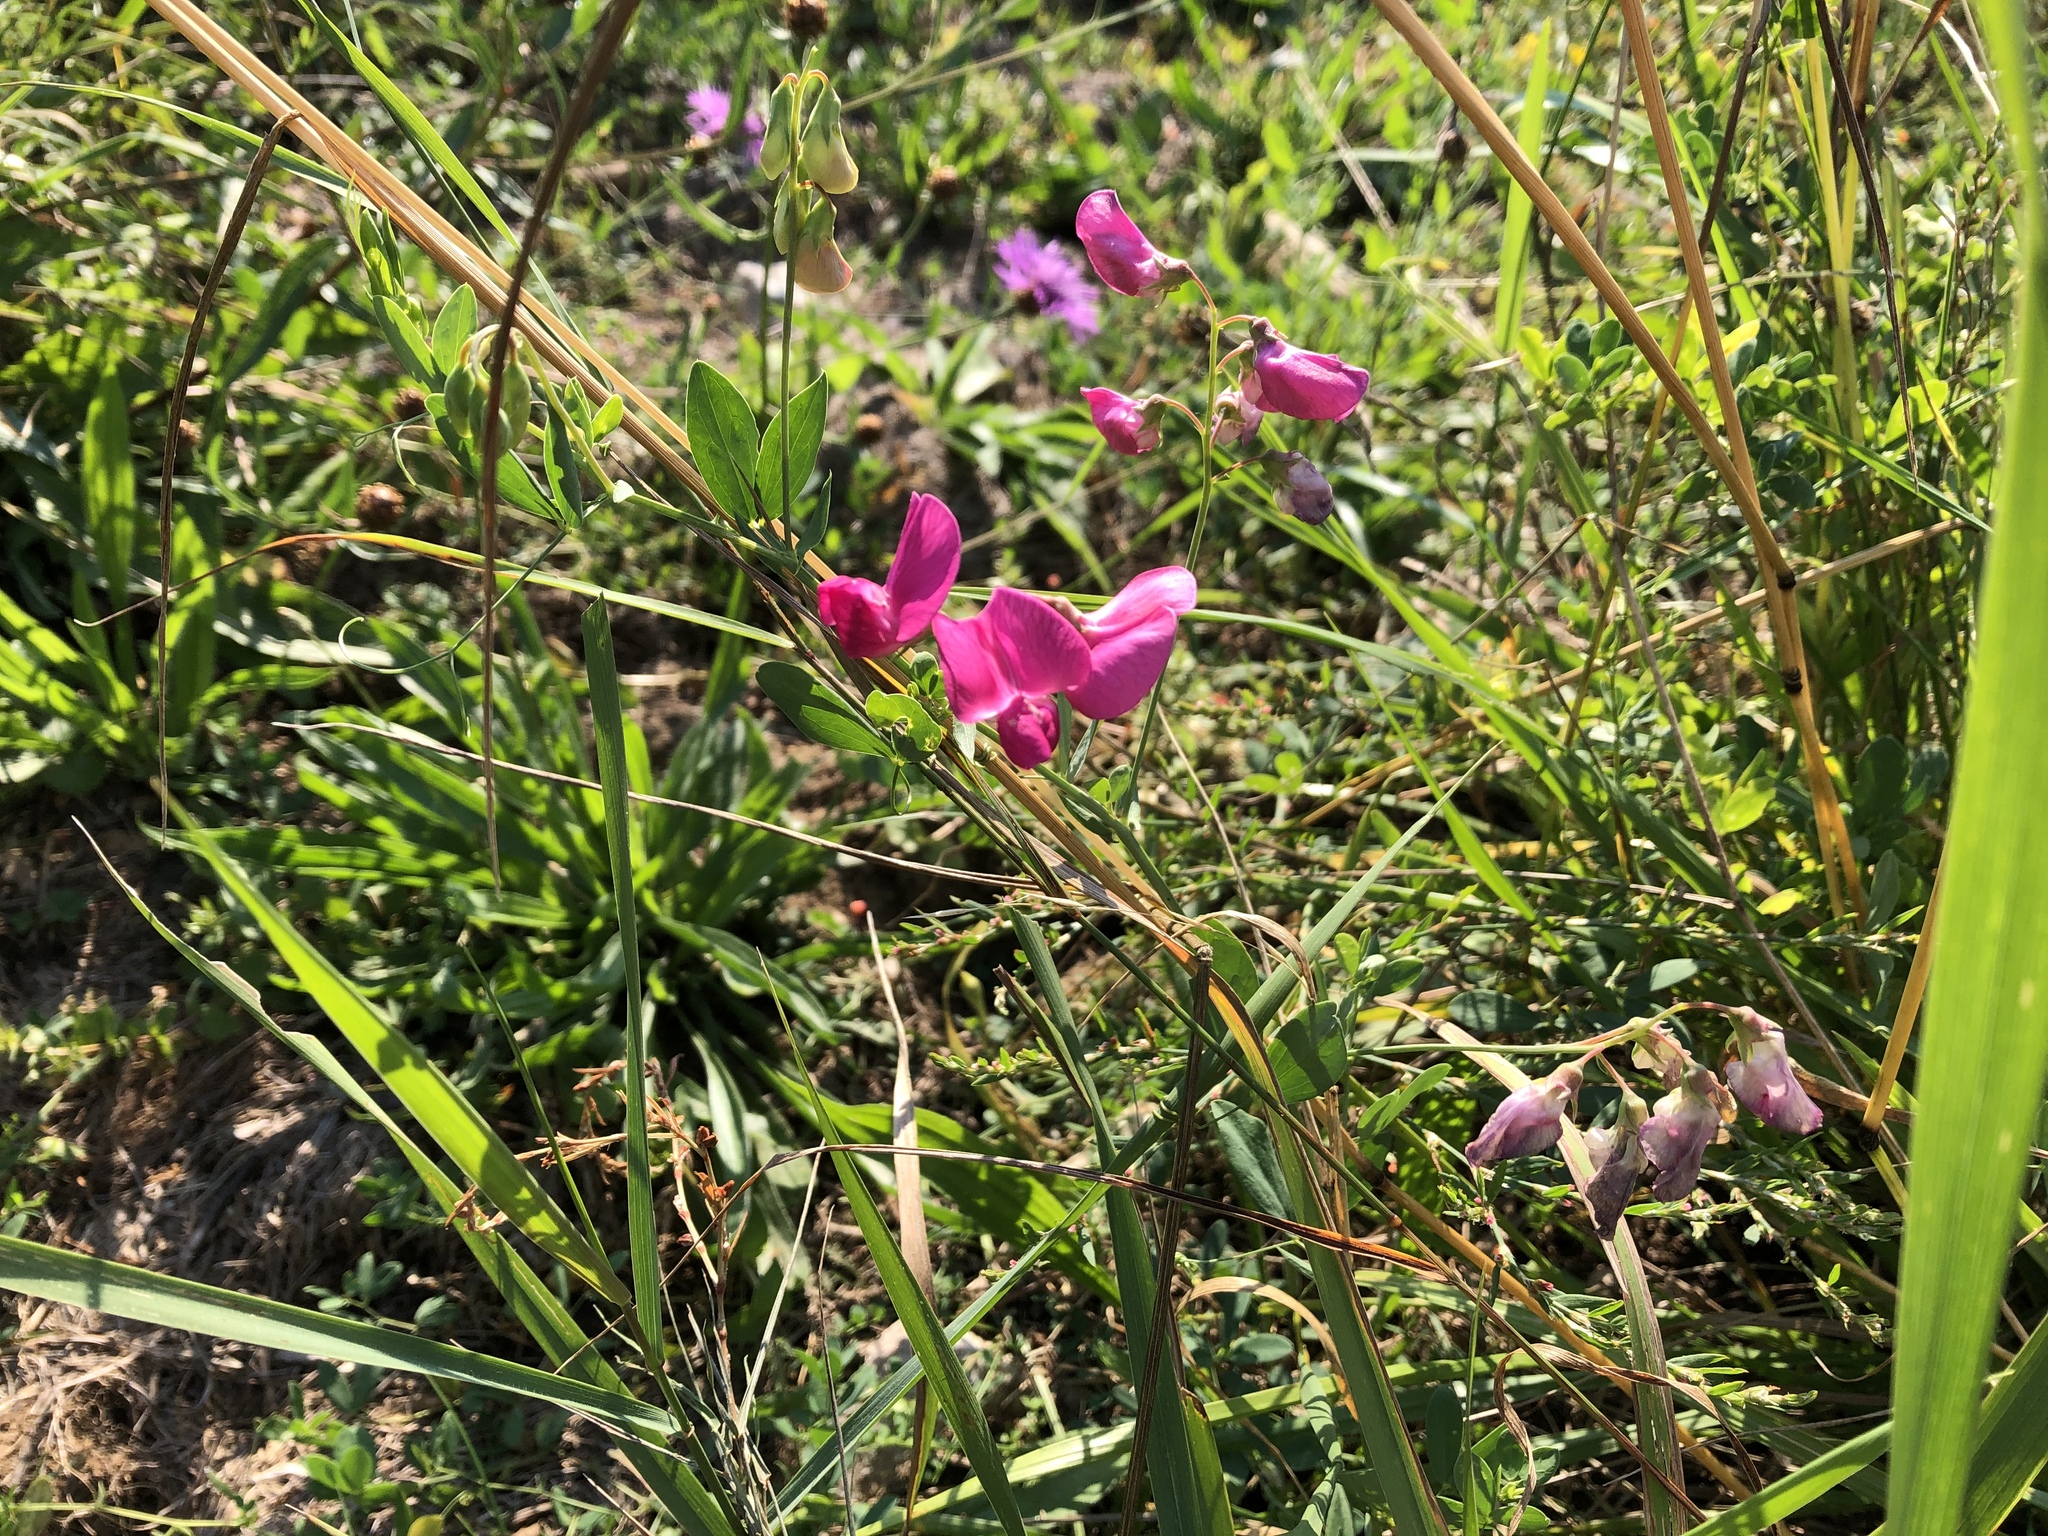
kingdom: Plantae
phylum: Tracheophyta
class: Magnoliopsida
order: Fabales
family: Fabaceae
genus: Lathyrus
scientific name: Lathyrus tuberosus
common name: Tuberous pea
